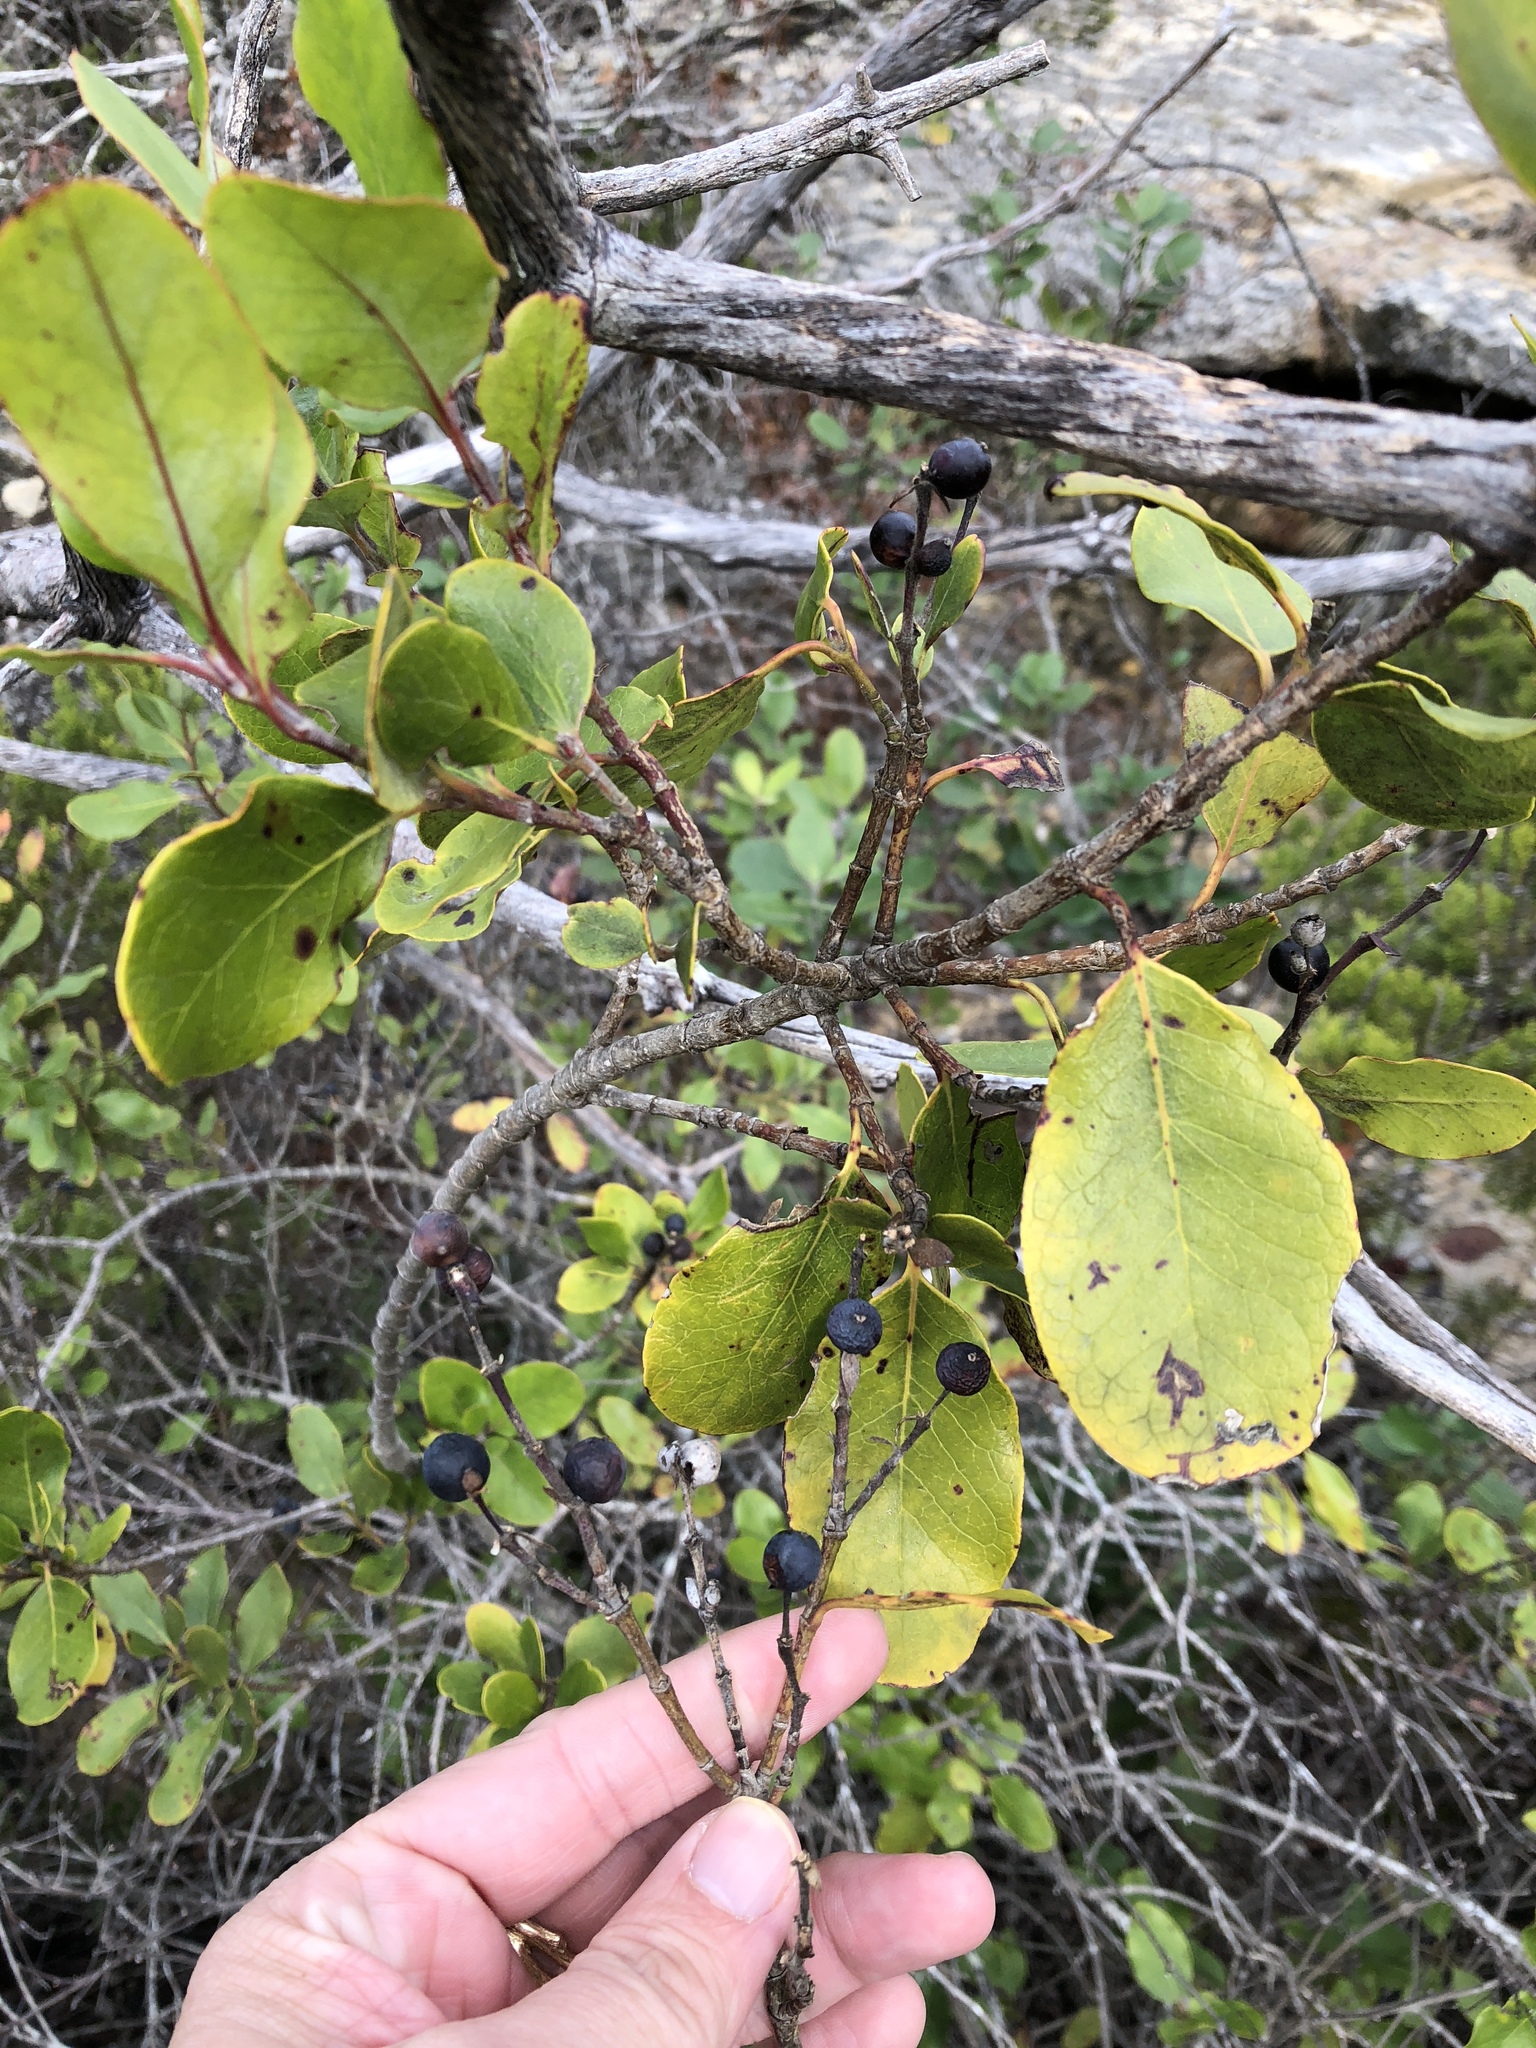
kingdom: Plantae
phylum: Tracheophyta
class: Magnoliopsida
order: Garryales
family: Garryaceae
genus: Garrya
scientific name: Garrya lindheimeri
